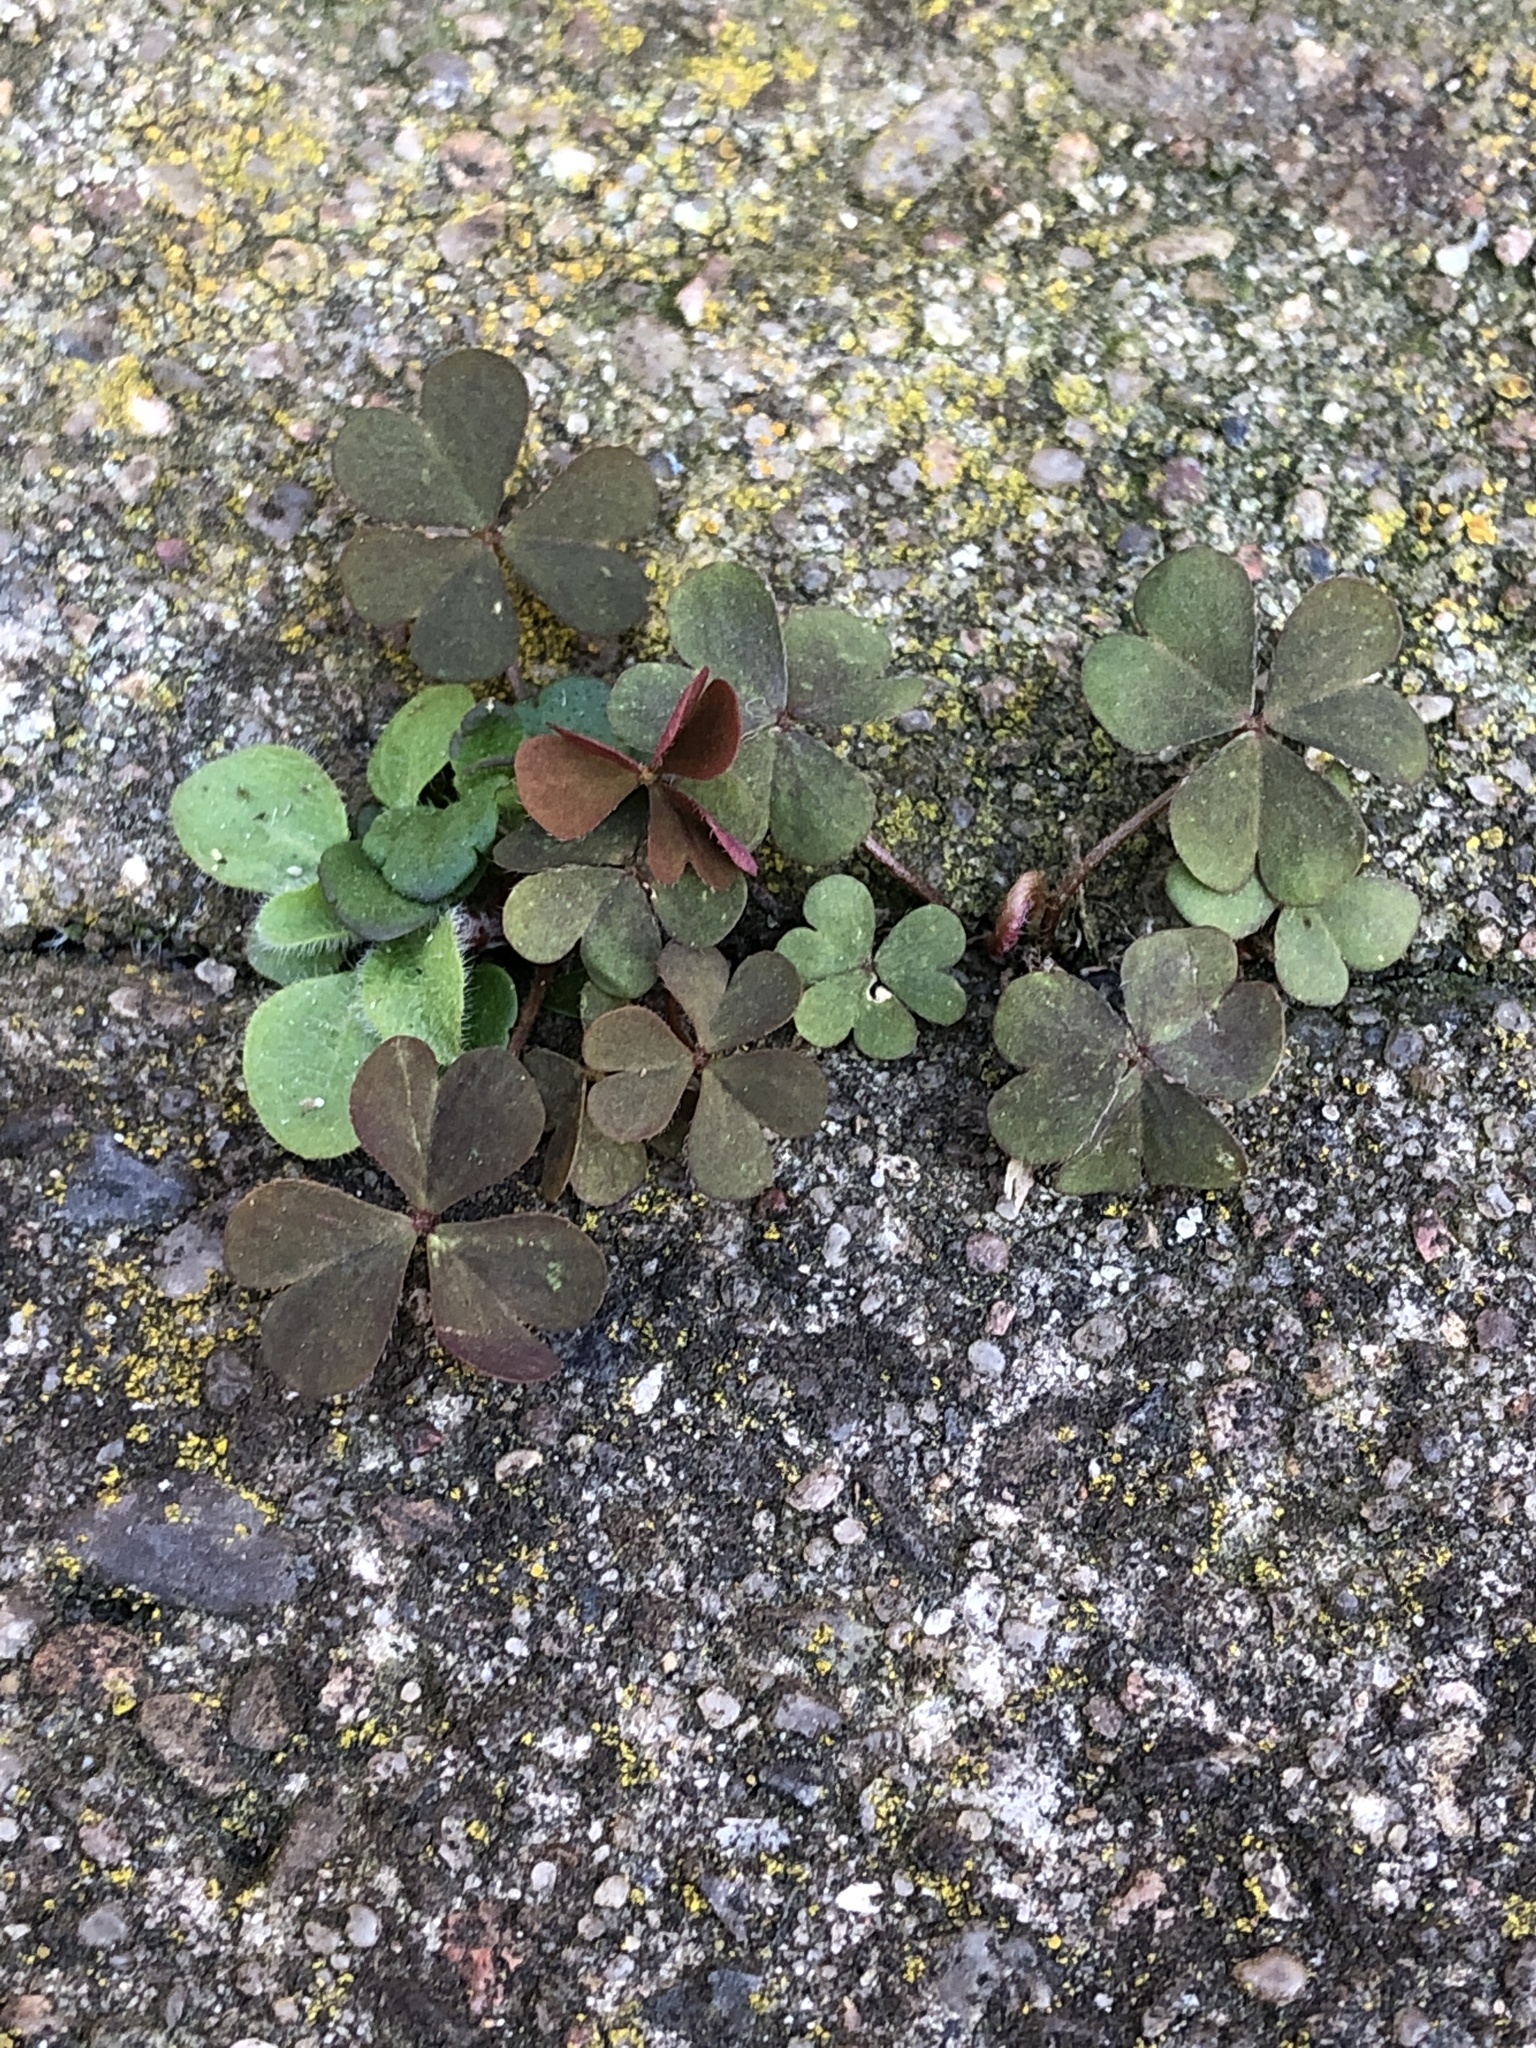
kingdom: Plantae
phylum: Tracheophyta
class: Magnoliopsida
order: Oxalidales
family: Oxalidaceae
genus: Oxalis
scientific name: Oxalis corniculata
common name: Procumbent yellow-sorrel
